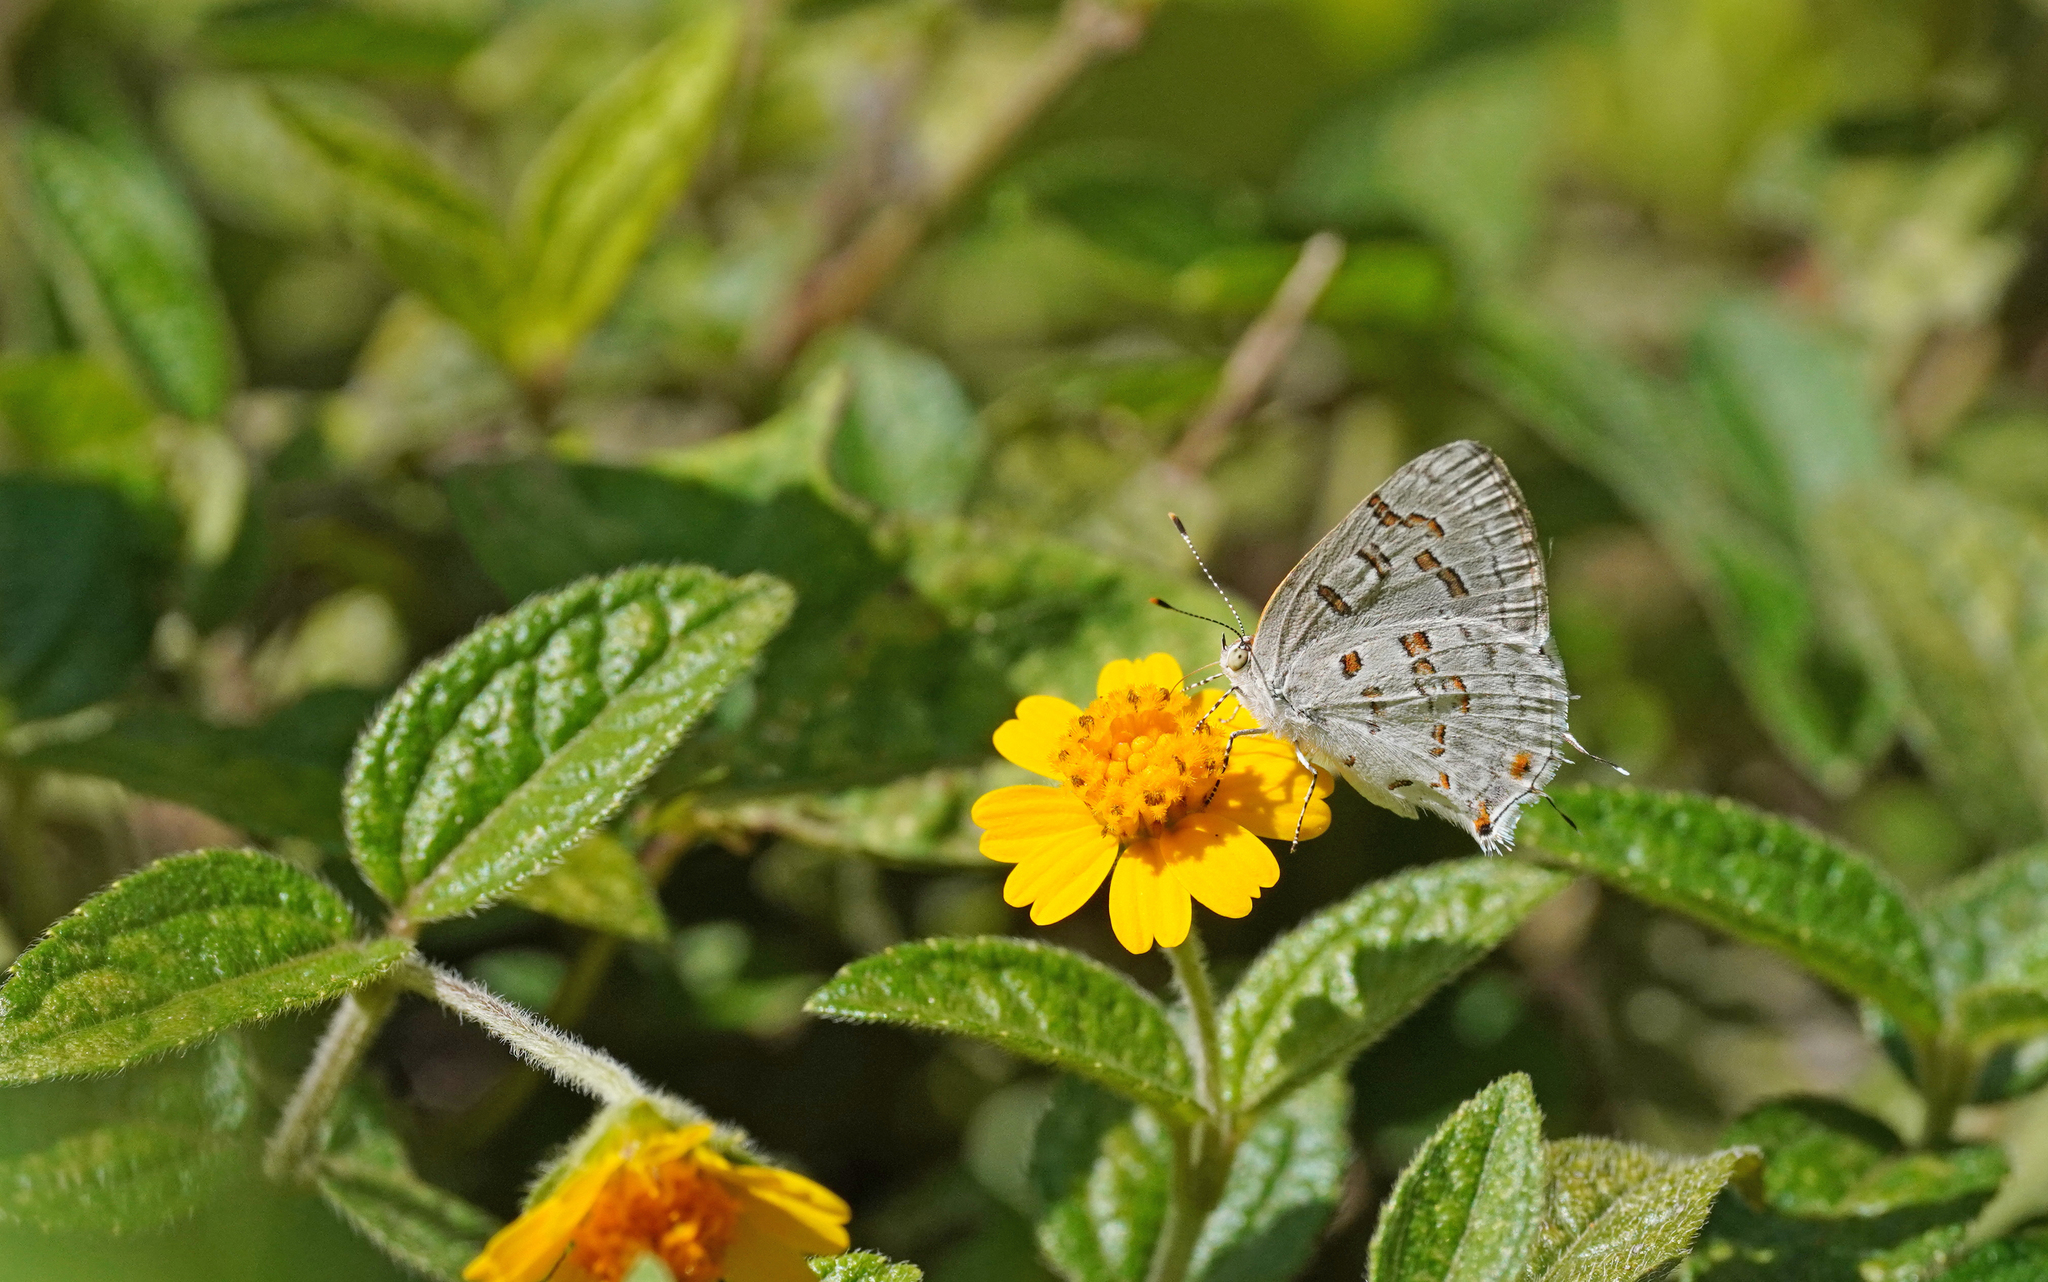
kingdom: Animalia
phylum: Arthropoda
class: Insecta
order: Lepidoptera
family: Lycaenidae
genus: Thecla
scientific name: Thecla una
